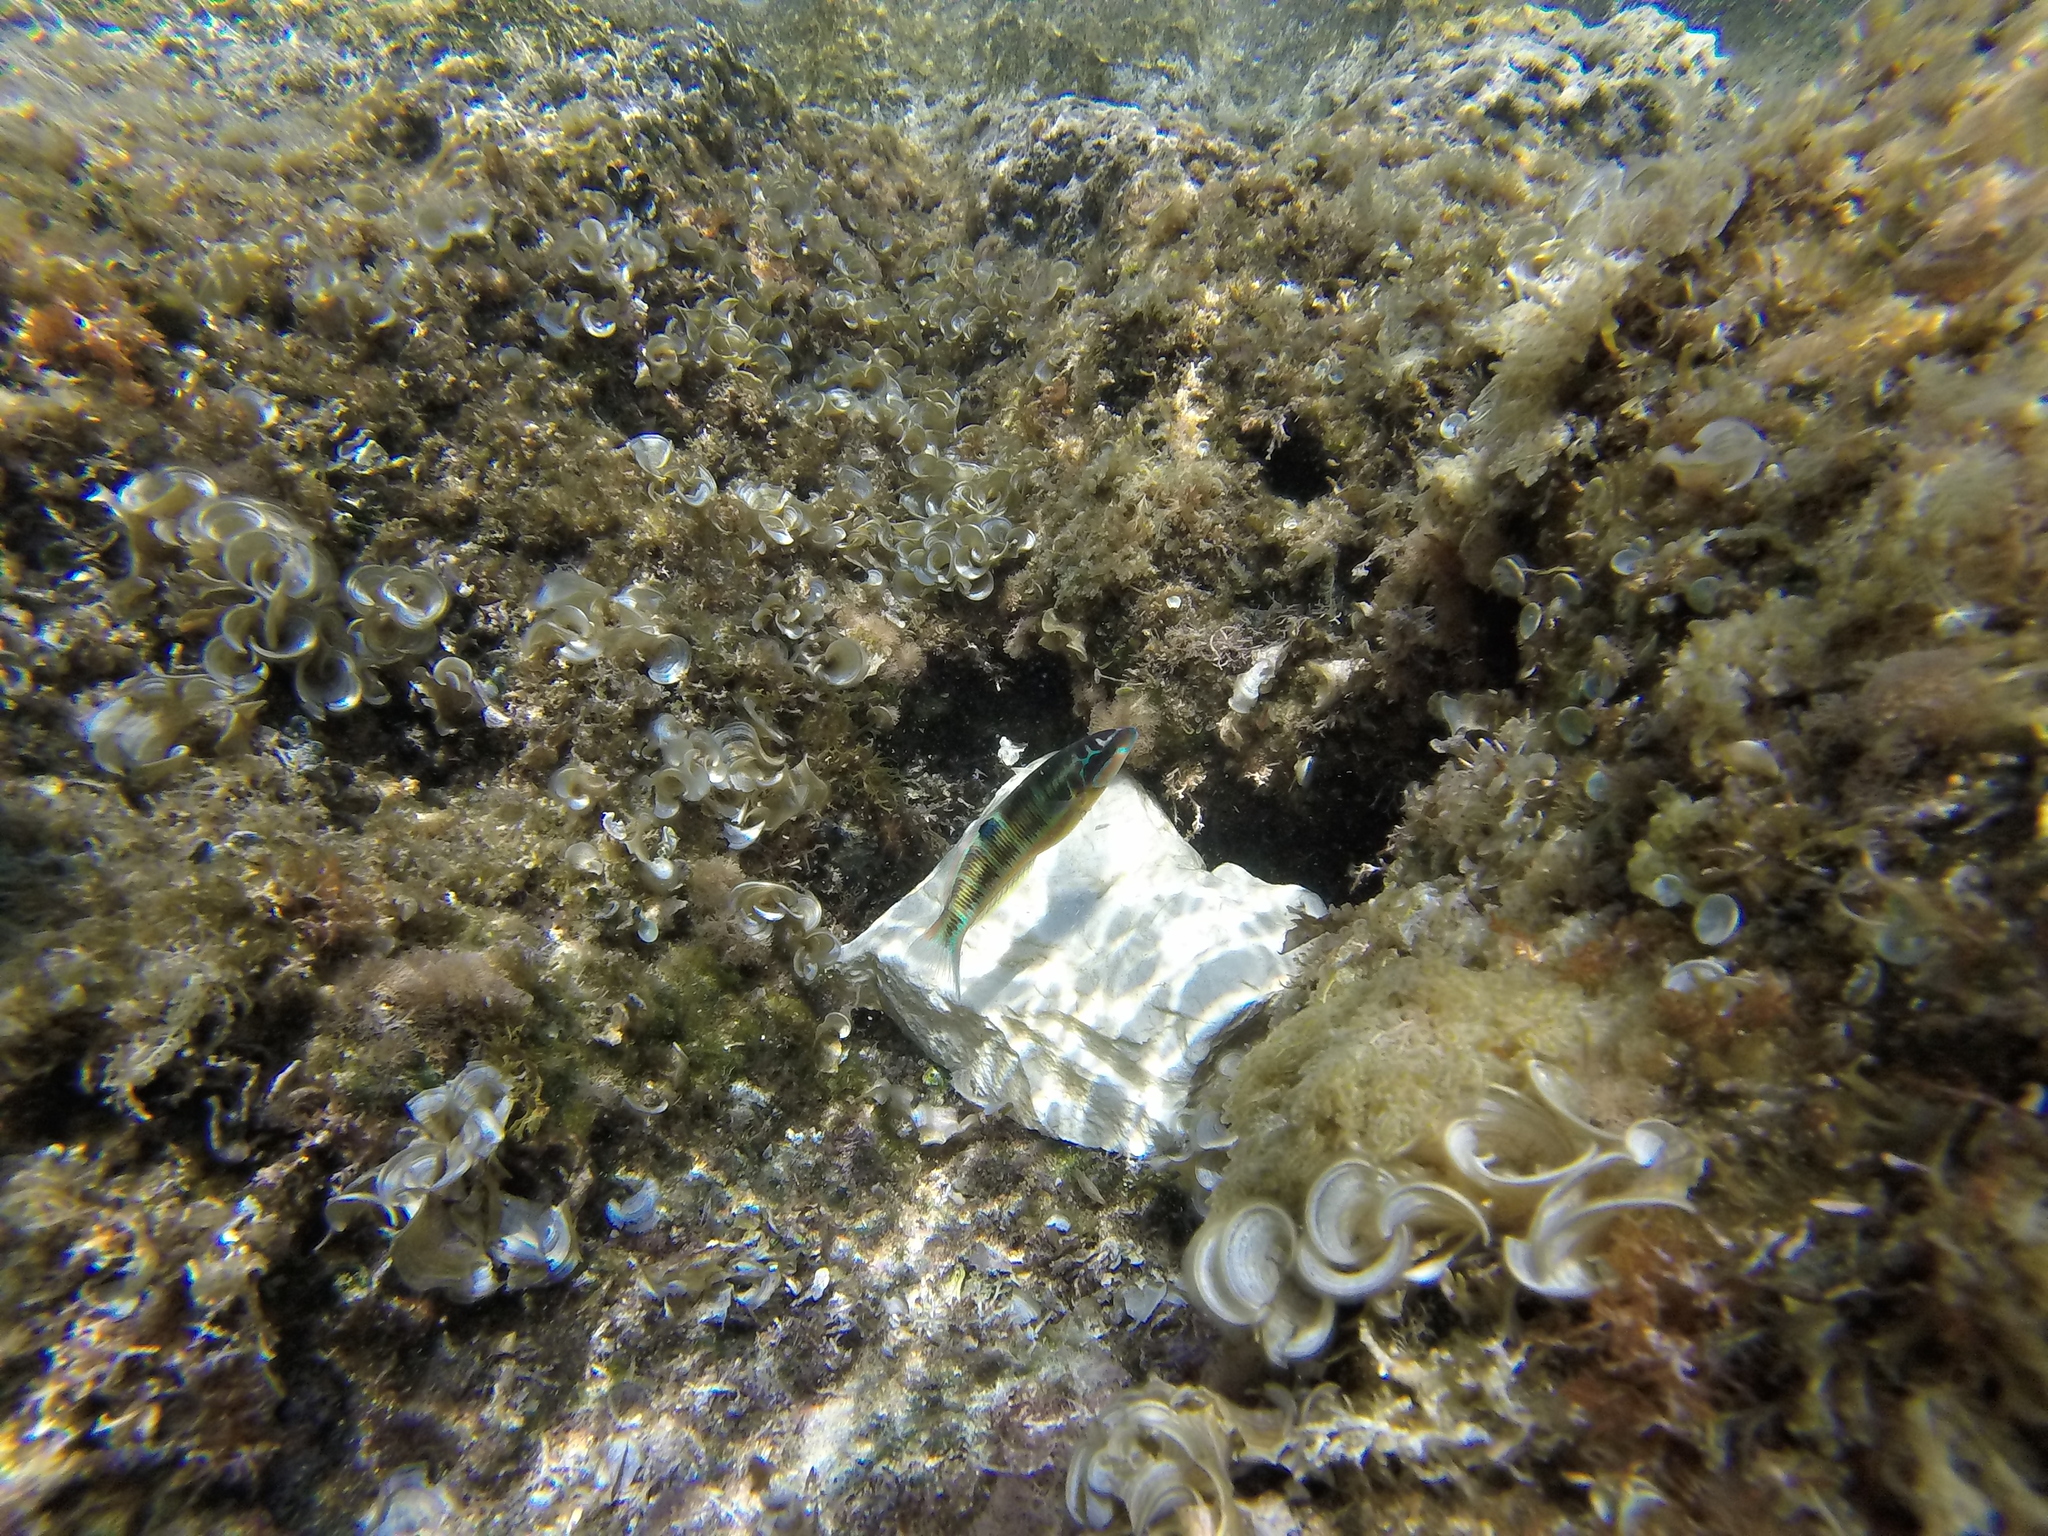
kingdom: Animalia
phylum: Chordata
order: Perciformes
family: Labridae
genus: Thalassoma
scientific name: Thalassoma pavo
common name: Ornate wrasse
